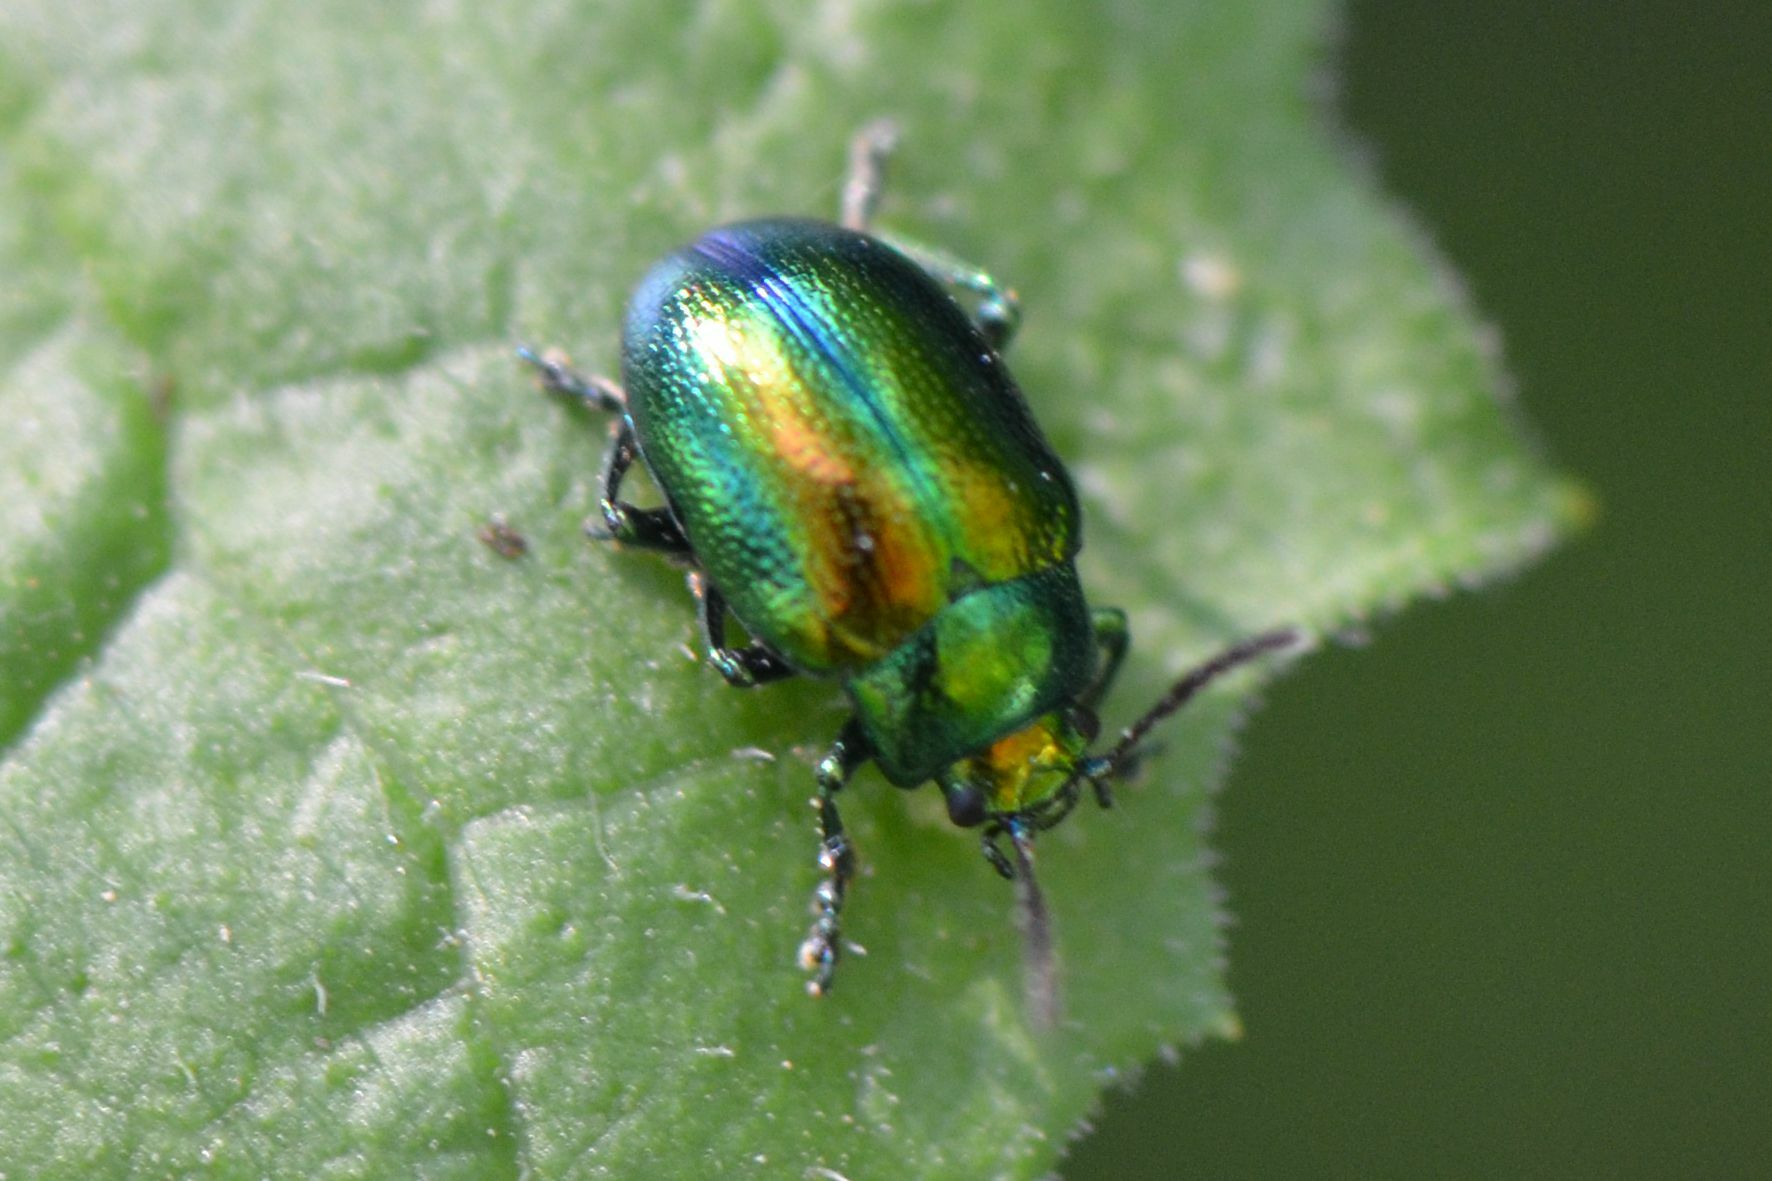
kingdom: Animalia
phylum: Arthropoda
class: Insecta
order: Coleoptera
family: Chrysomelidae
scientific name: Chrysomelidae
